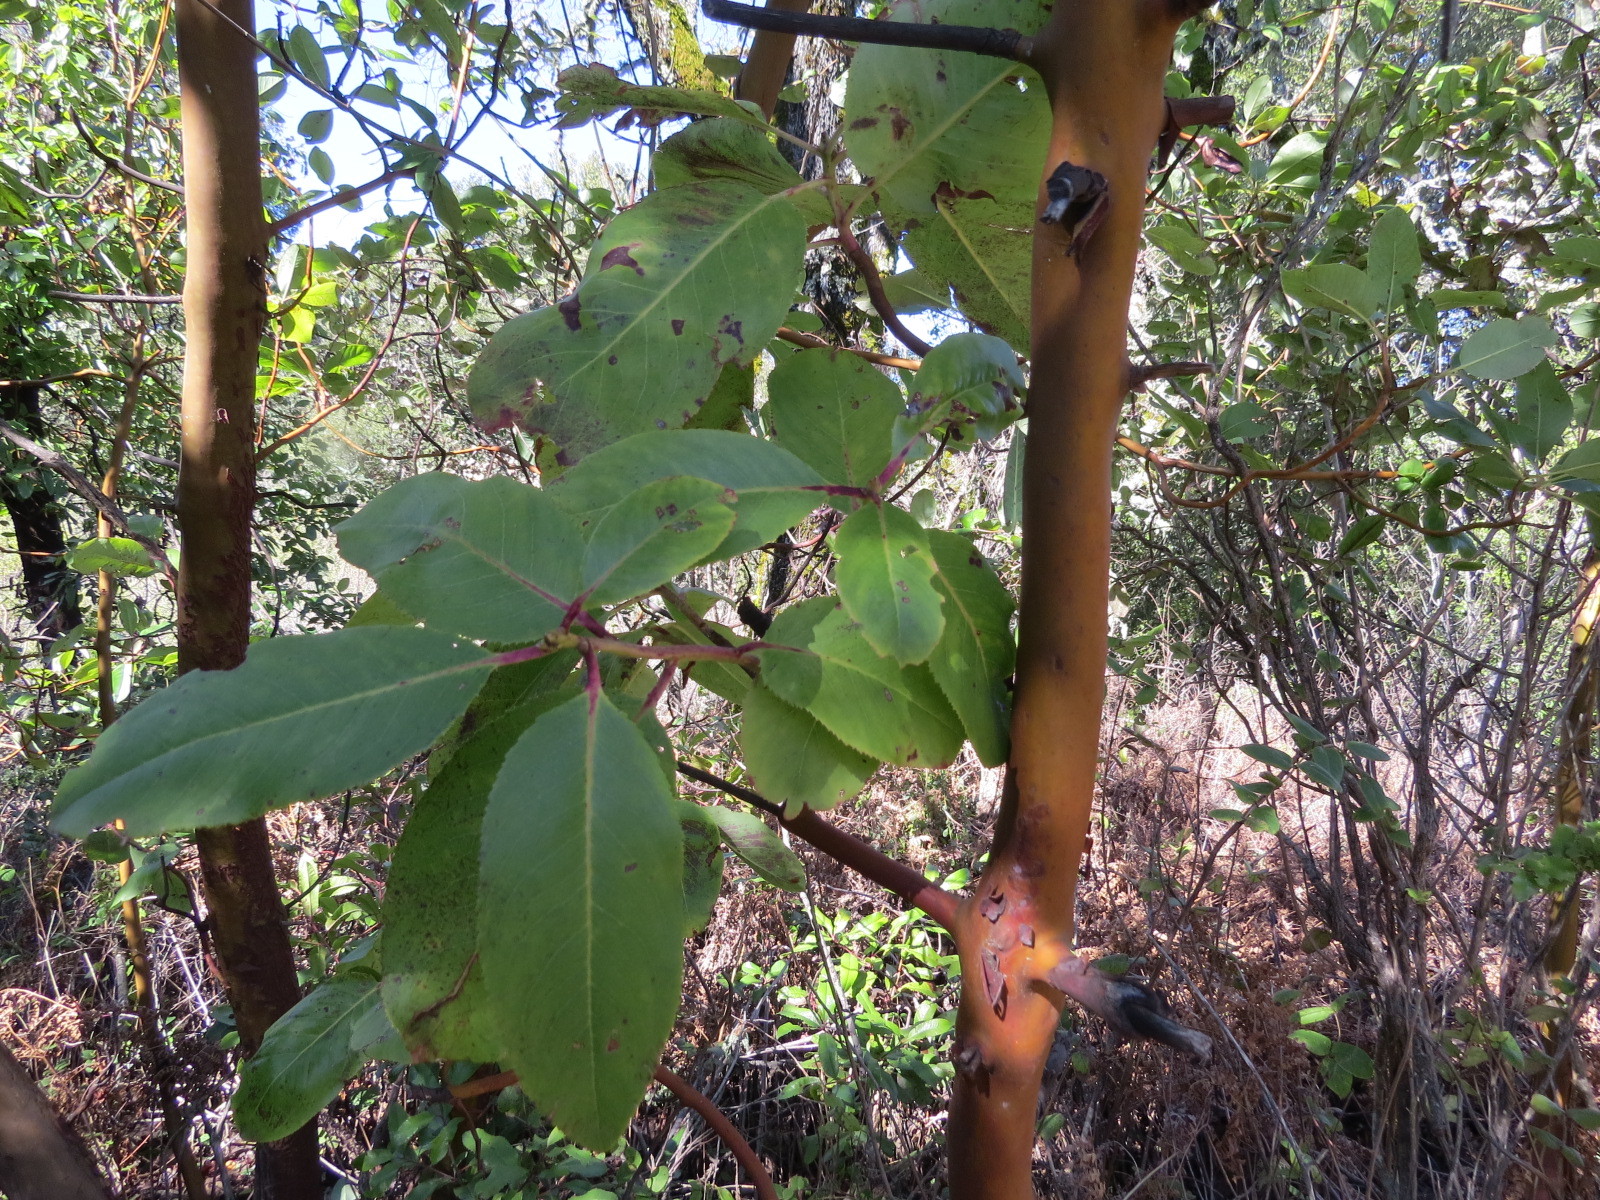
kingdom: Plantae
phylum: Tracheophyta
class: Magnoliopsida
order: Ericales
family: Ericaceae
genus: Arbutus
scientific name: Arbutus menziesii
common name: Pacific madrone
